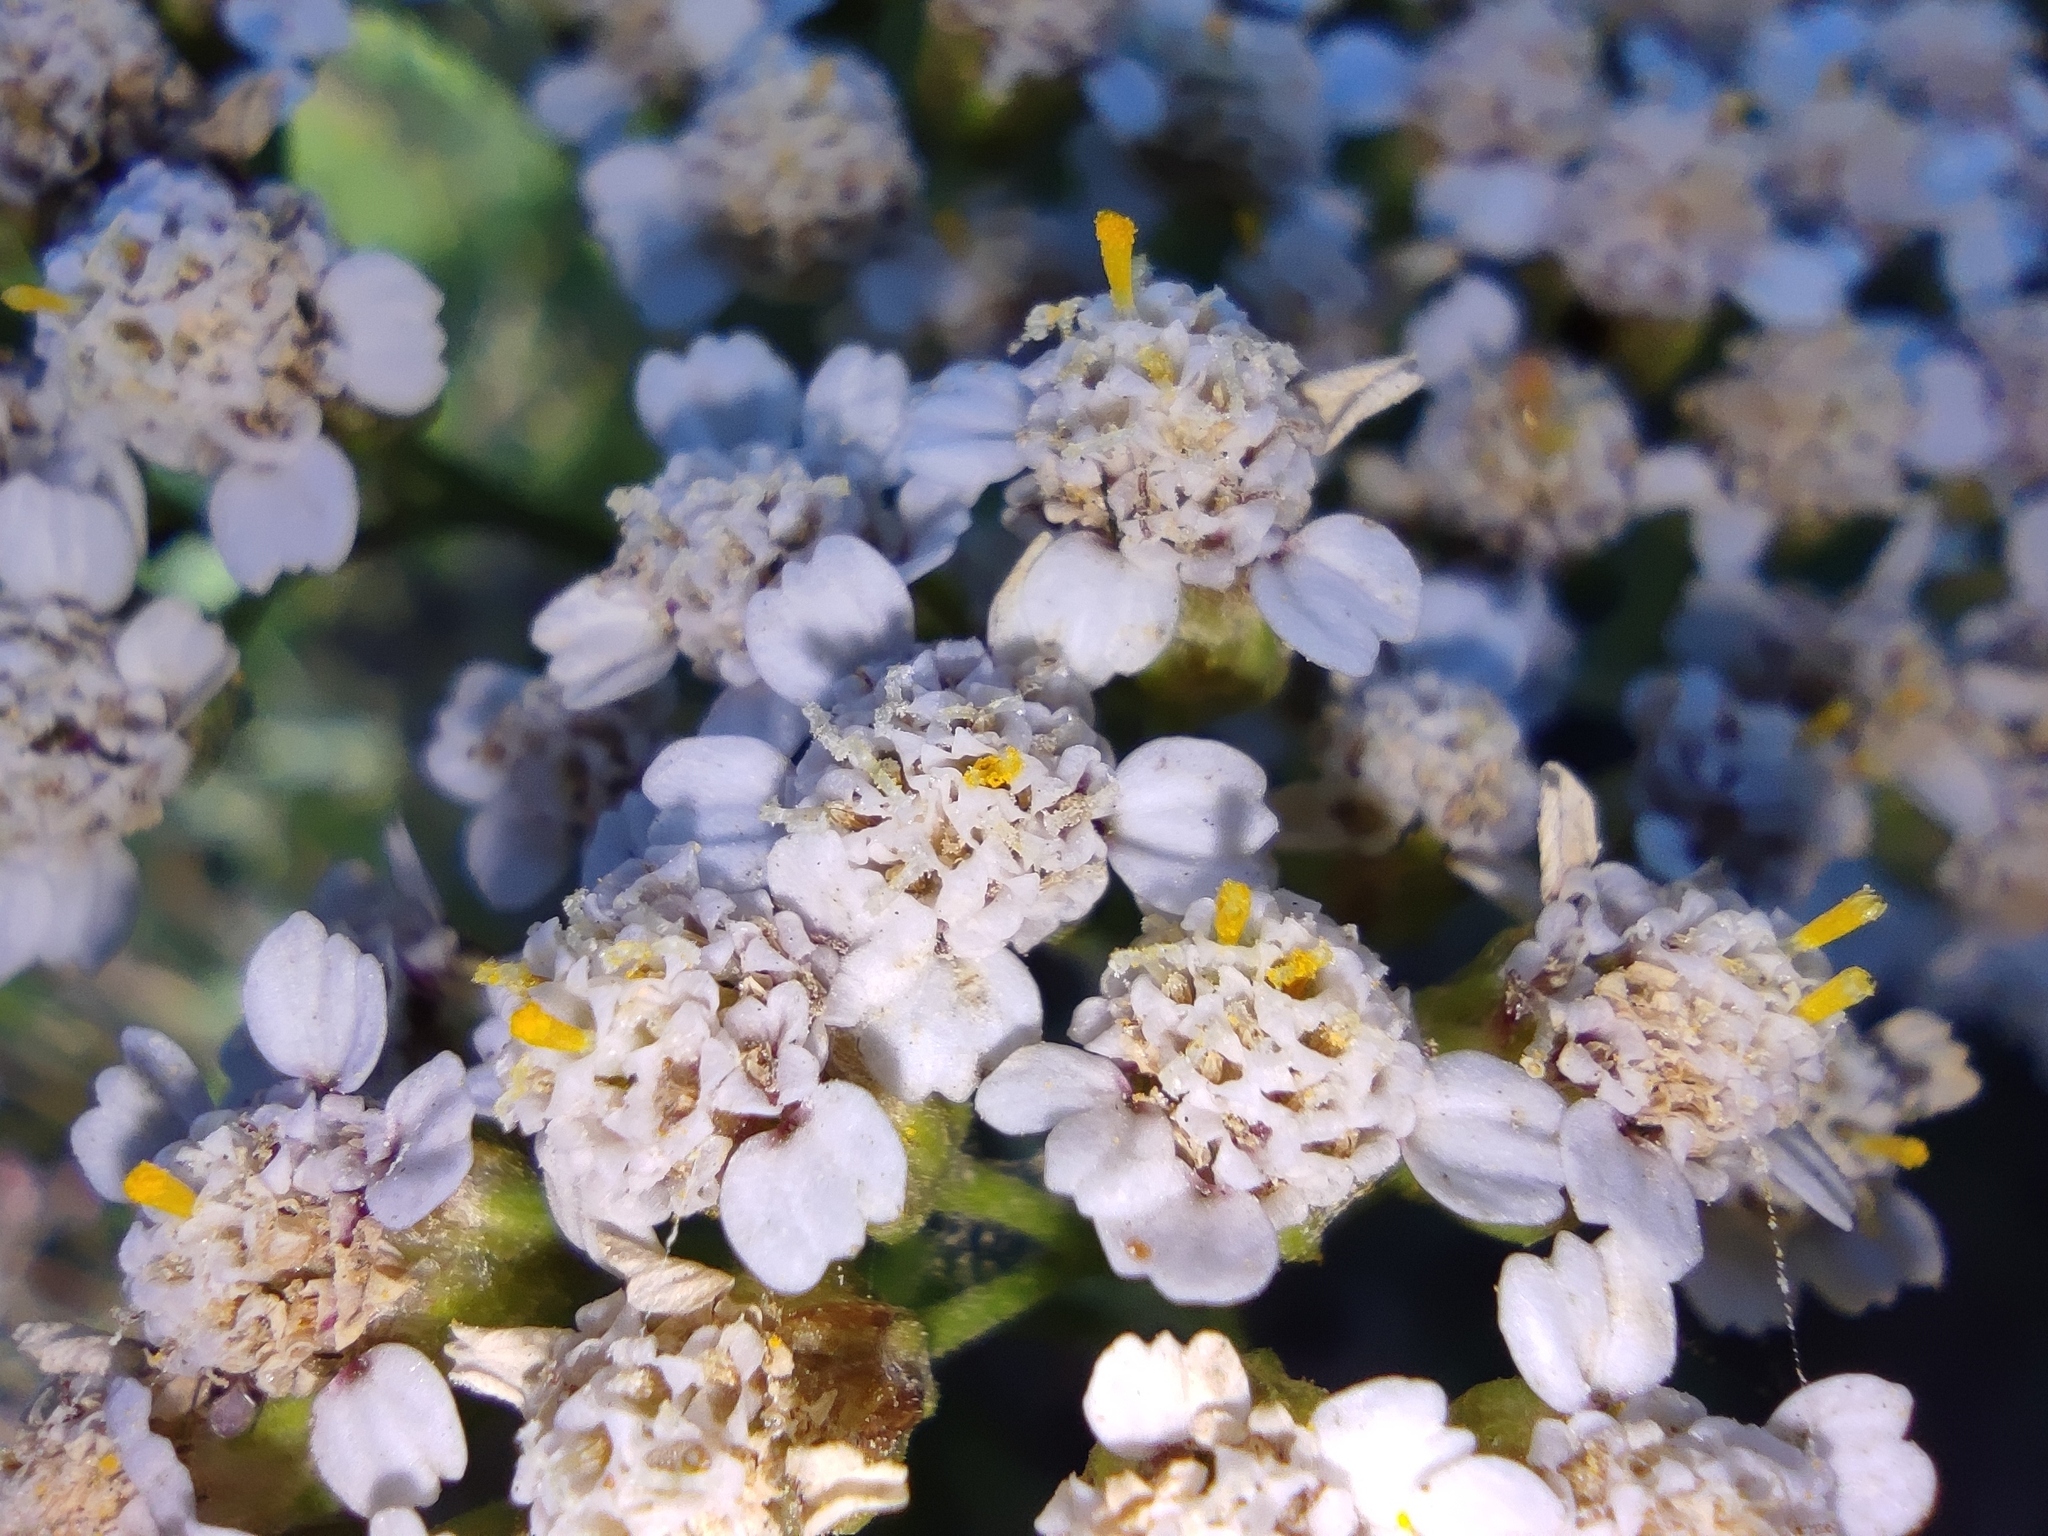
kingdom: Plantae
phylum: Tracheophyta
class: Magnoliopsida
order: Asterales
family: Asteraceae
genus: Achillea
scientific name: Achillea millefolium
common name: Yarrow
